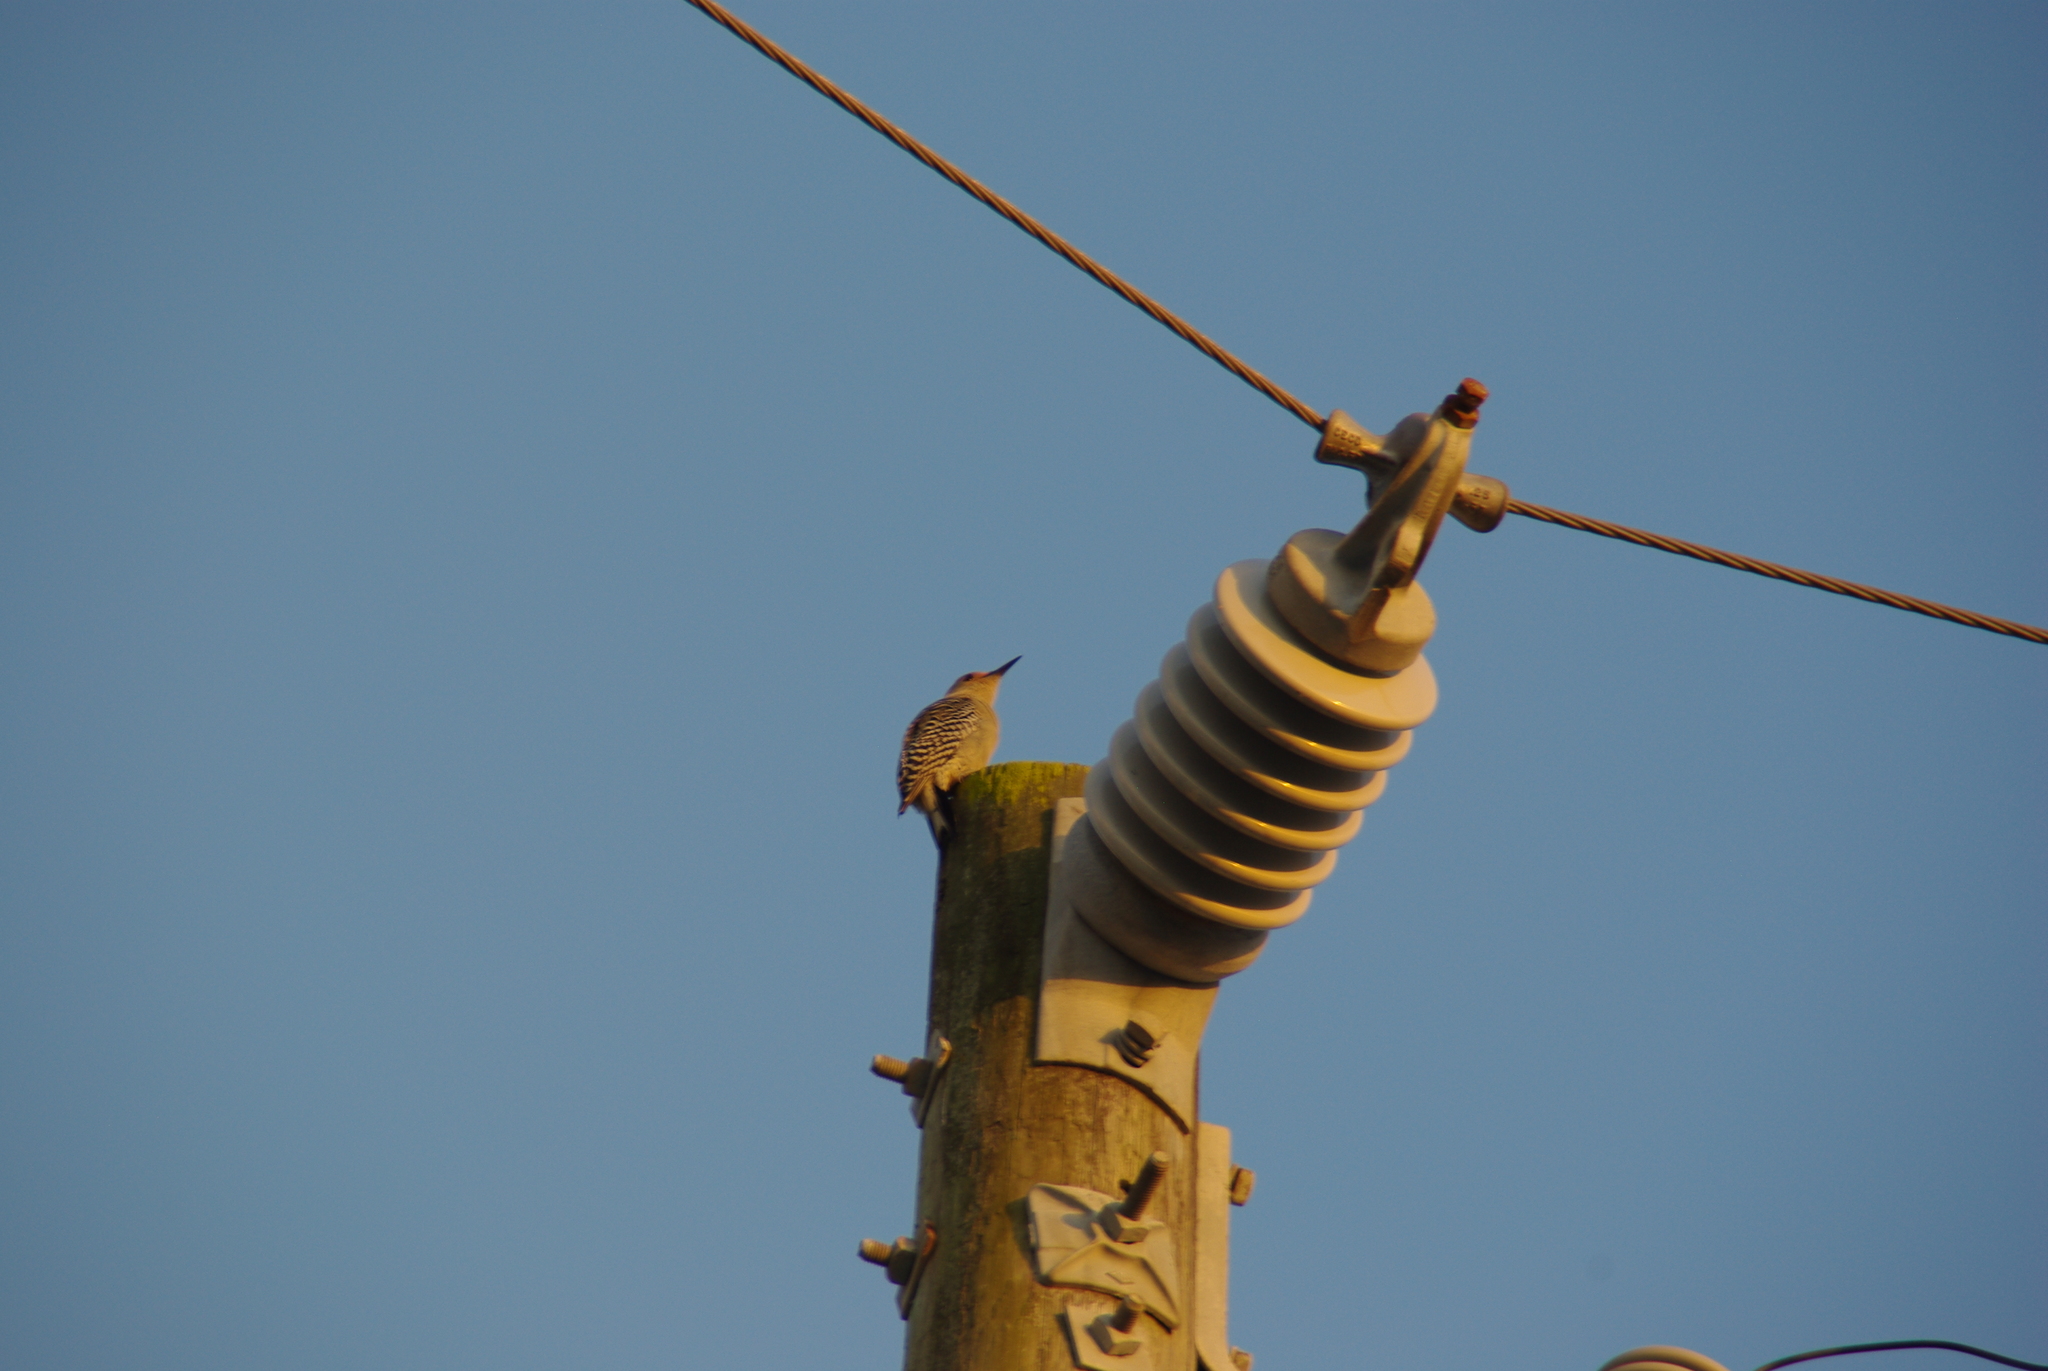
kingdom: Animalia
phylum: Chordata
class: Aves
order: Piciformes
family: Picidae
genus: Melanerpes
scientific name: Melanerpes carolinus
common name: Red-bellied woodpecker
